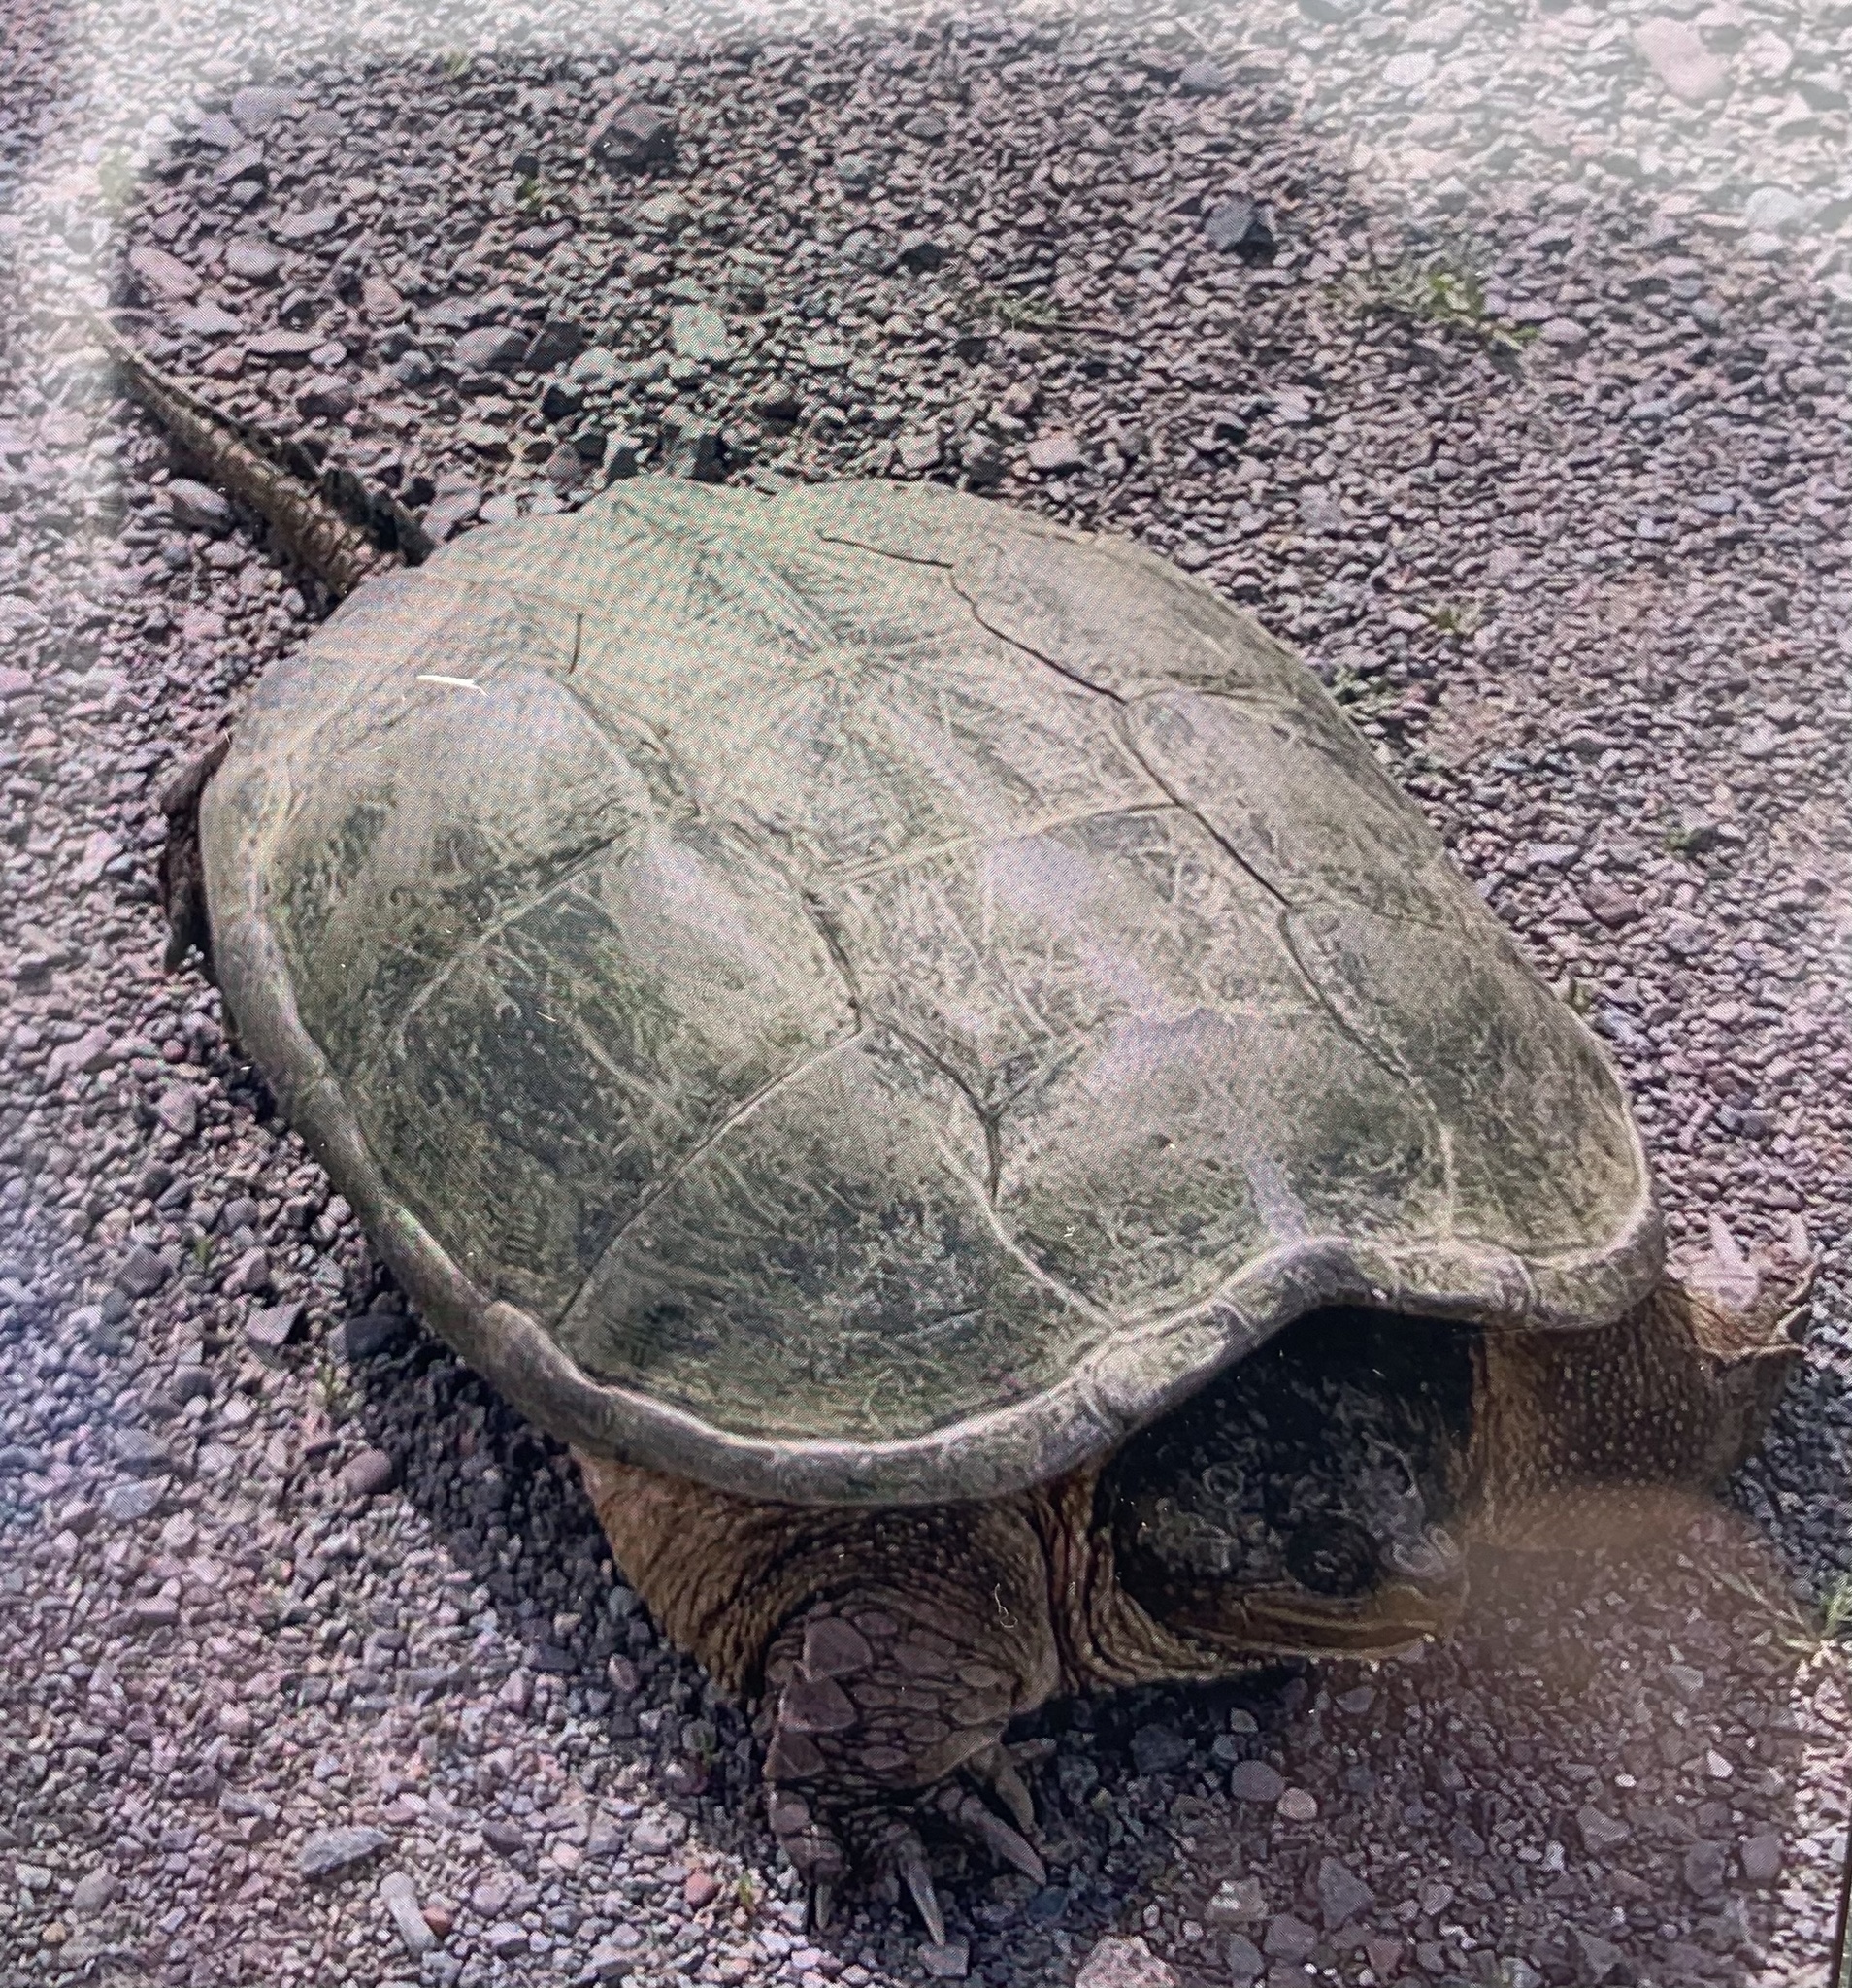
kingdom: Animalia
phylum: Chordata
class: Testudines
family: Chelydridae
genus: Chelydra
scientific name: Chelydra serpentina
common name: Common snapping turtle
